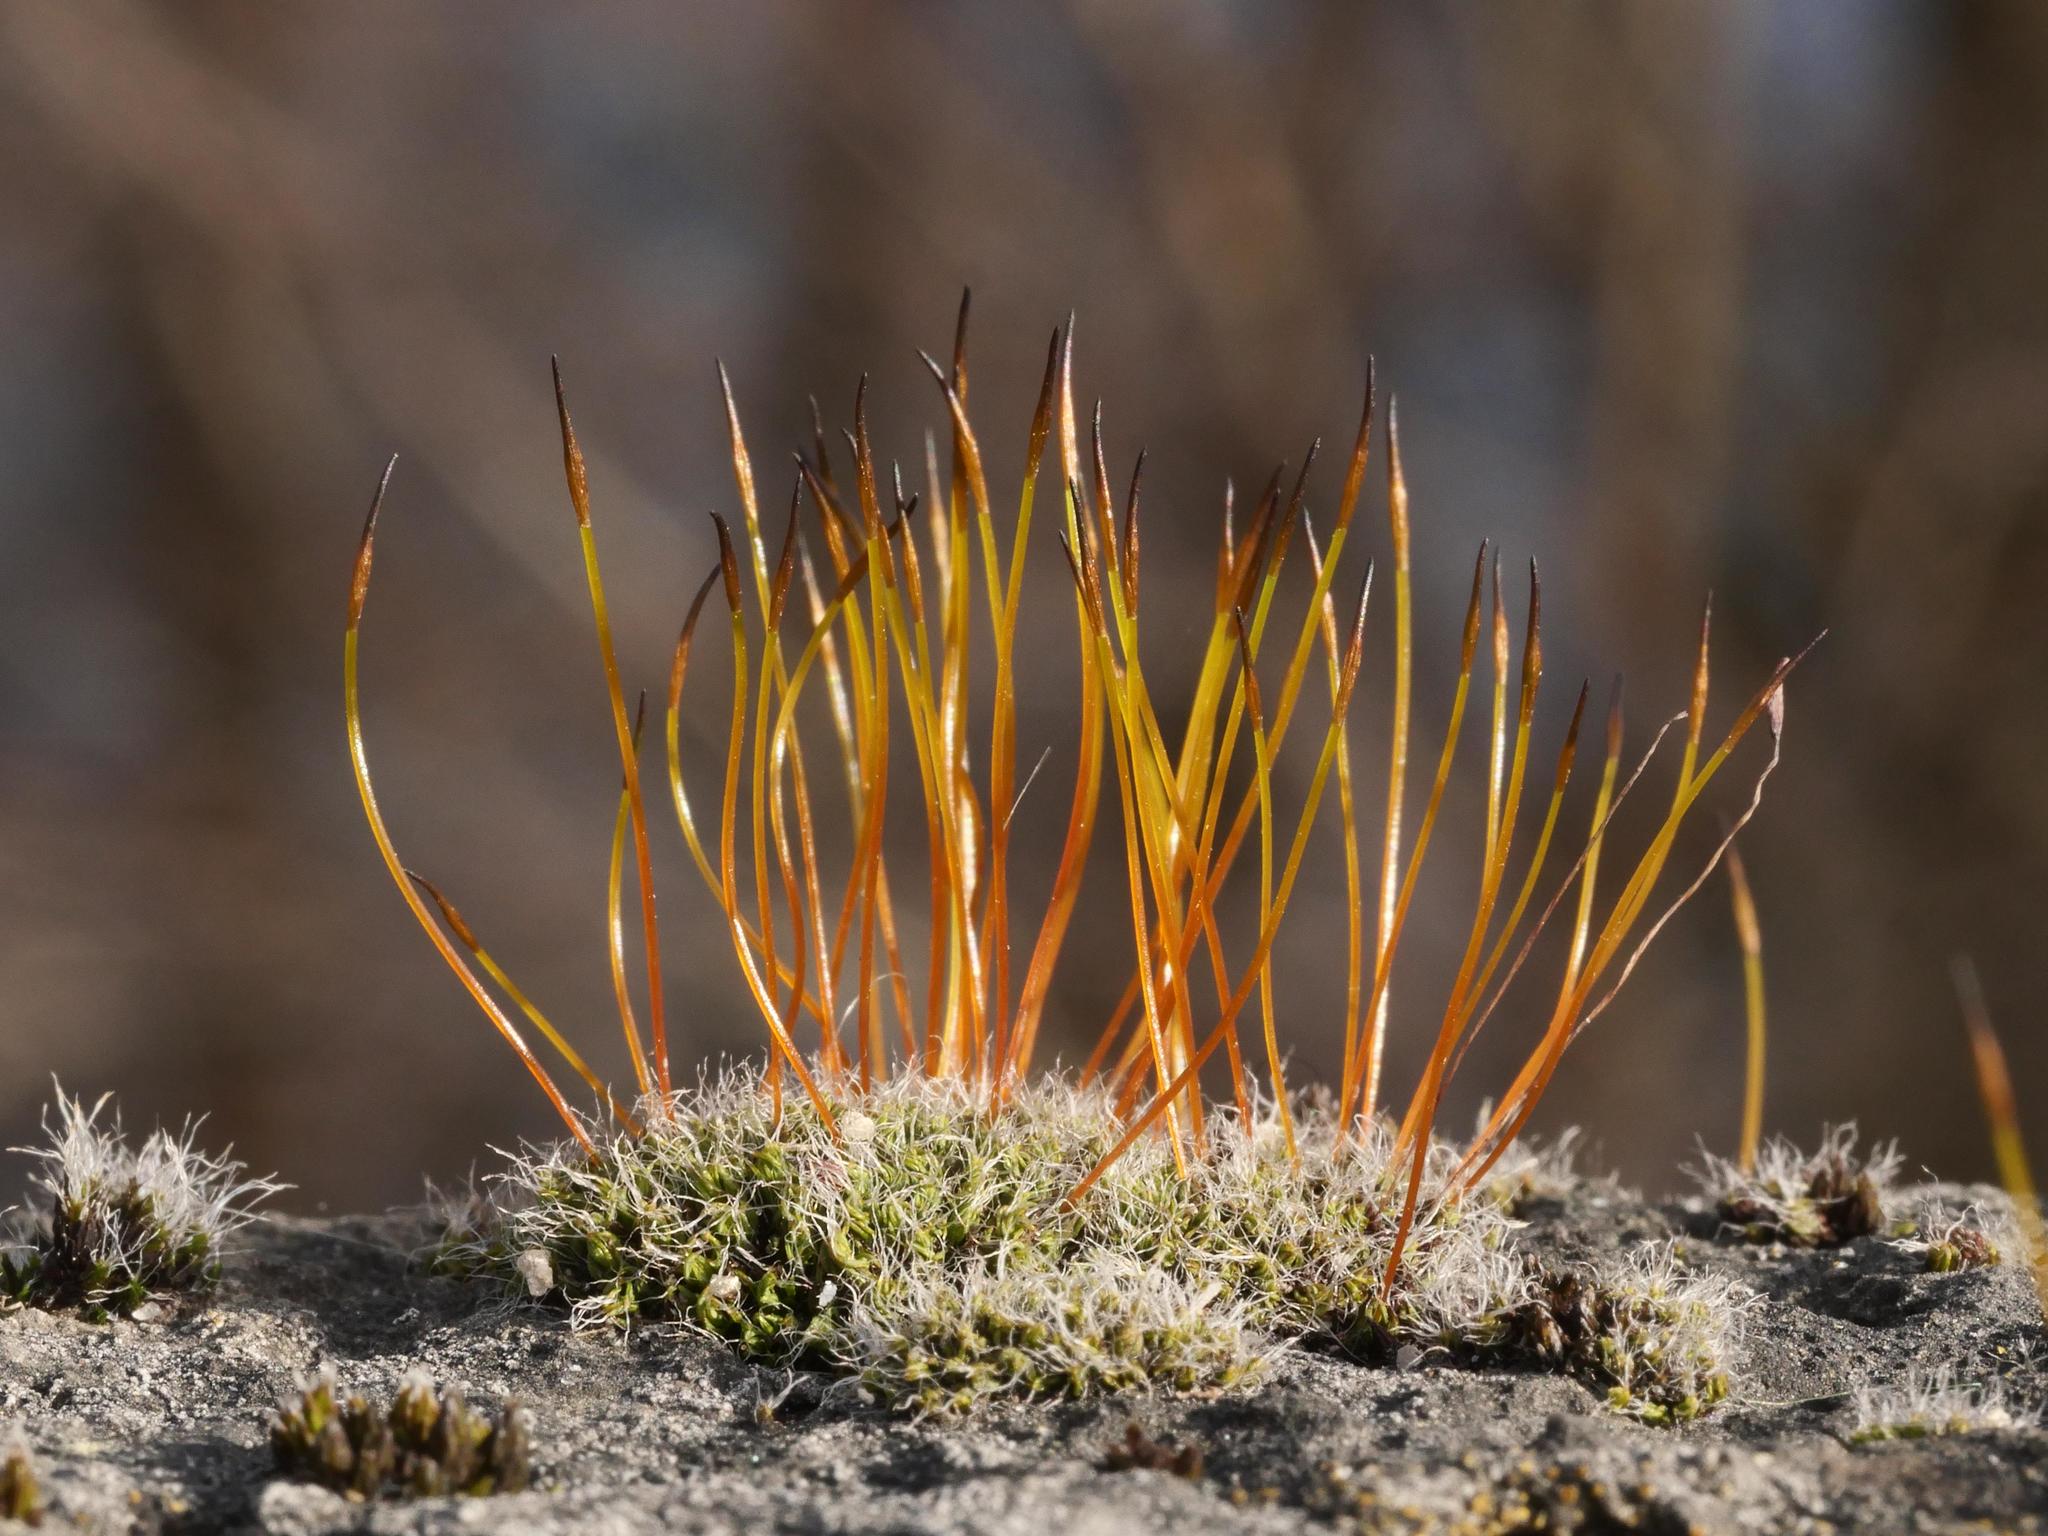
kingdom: Plantae
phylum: Bryophyta
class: Bryopsida
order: Pottiales
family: Pottiaceae
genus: Tortula
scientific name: Tortula muralis
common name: Wall screw-moss
